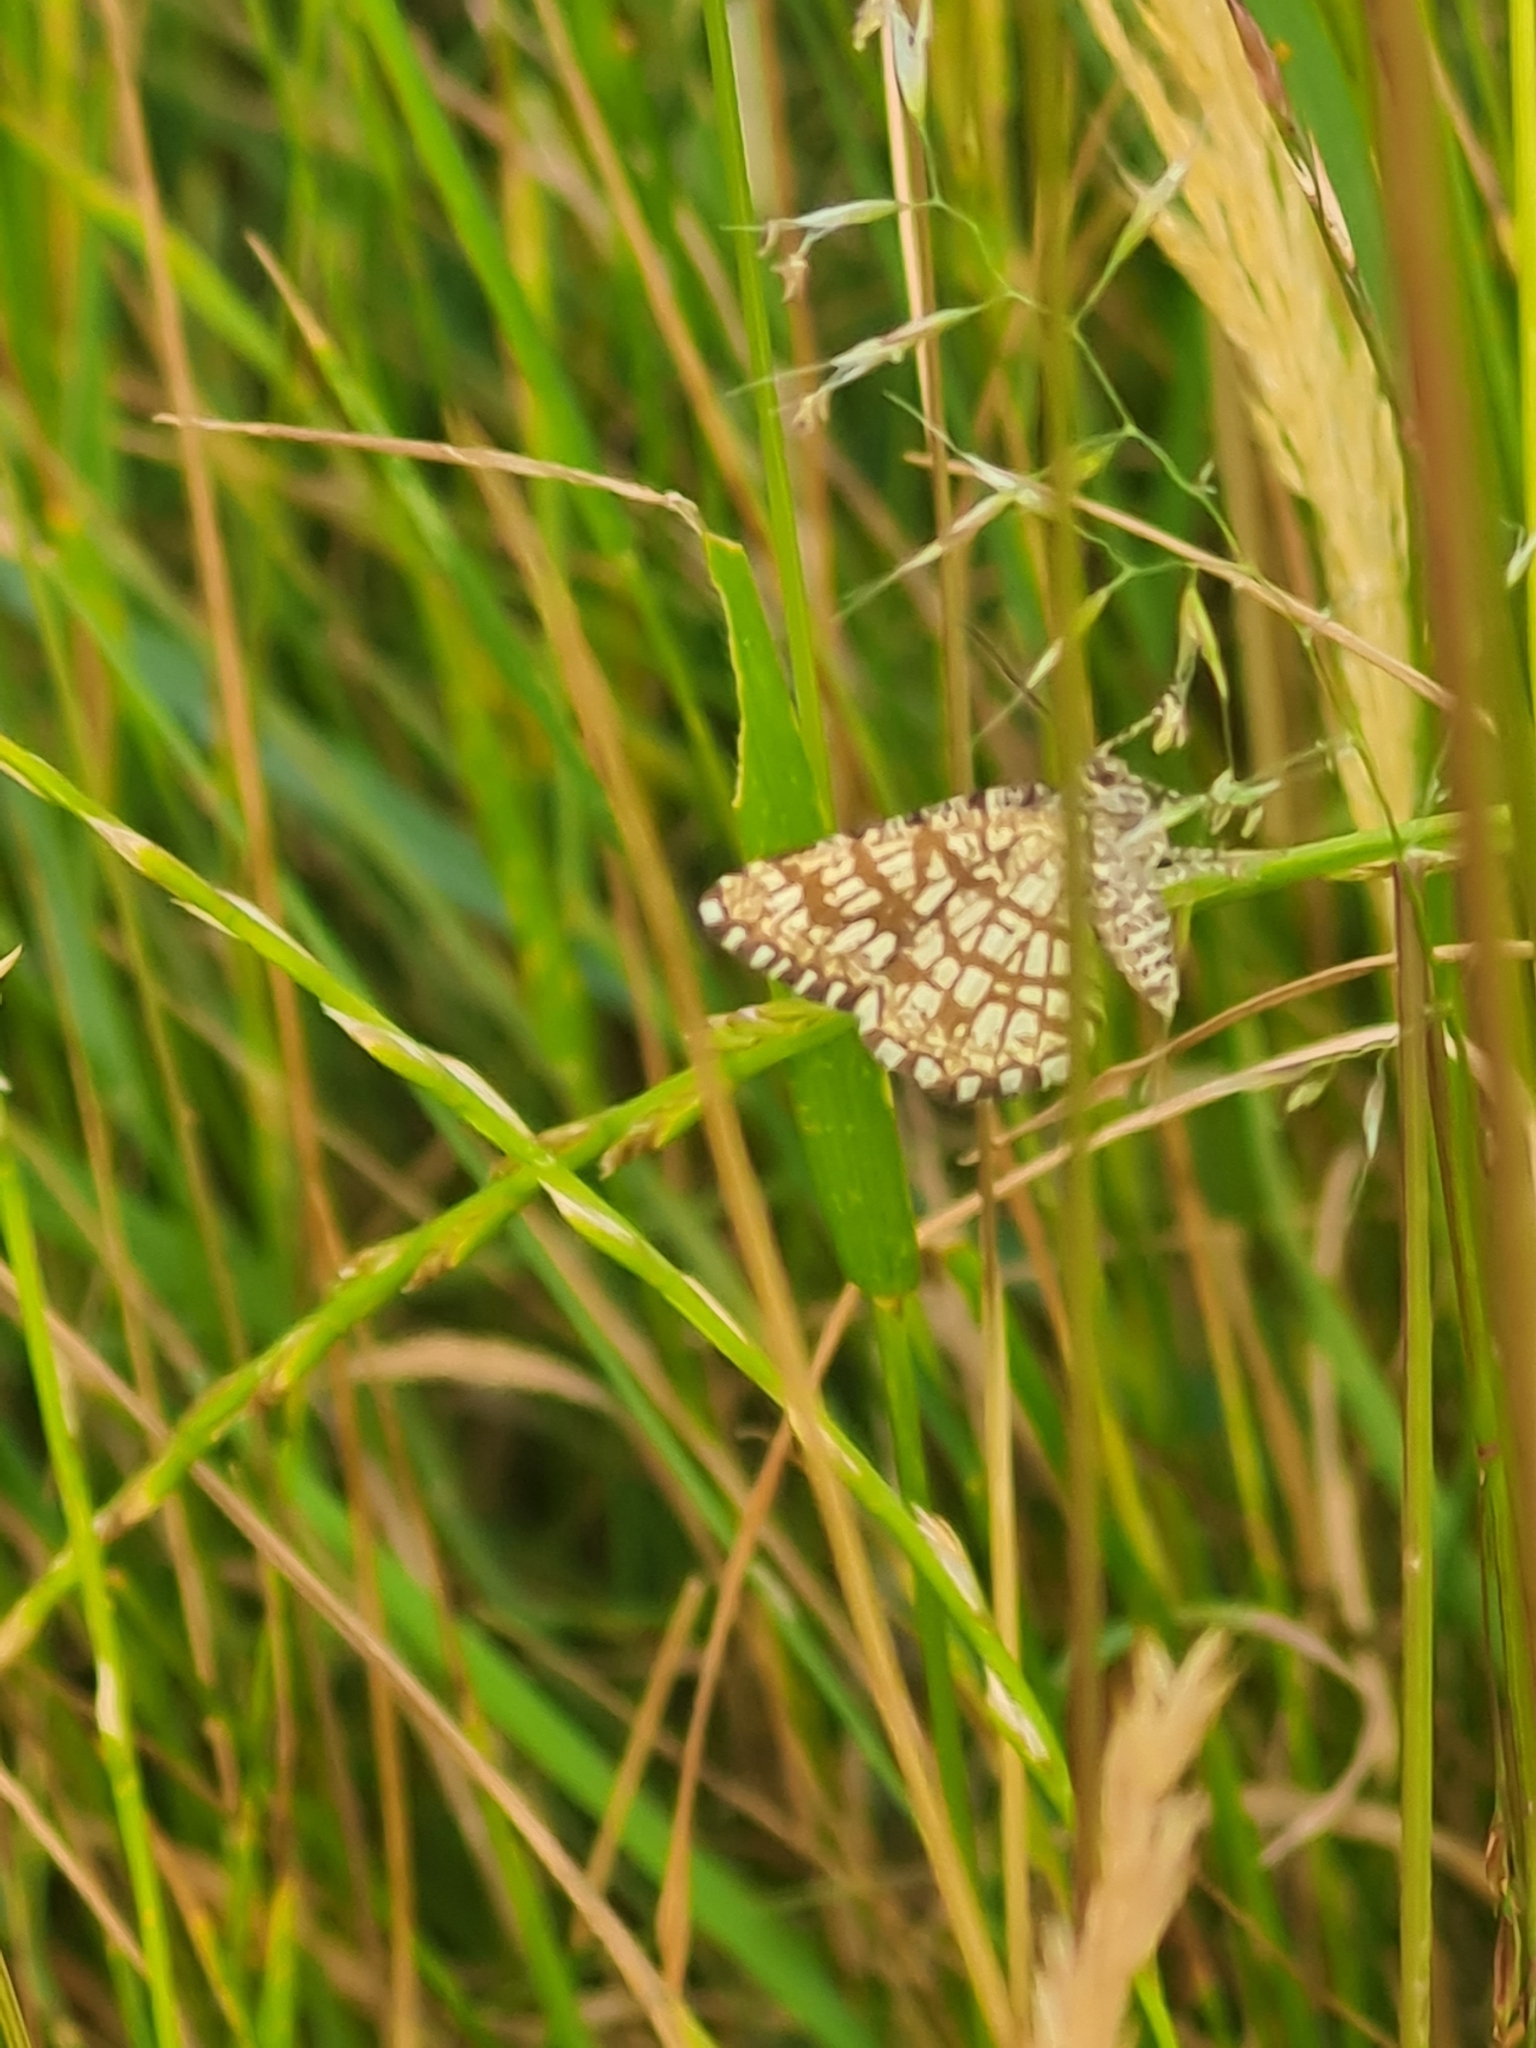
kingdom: Animalia
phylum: Arthropoda
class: Insecta
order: Lepidoptera
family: Geometridae
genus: Chiasmia
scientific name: Chiasmia clathrata
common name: Latticed heath
